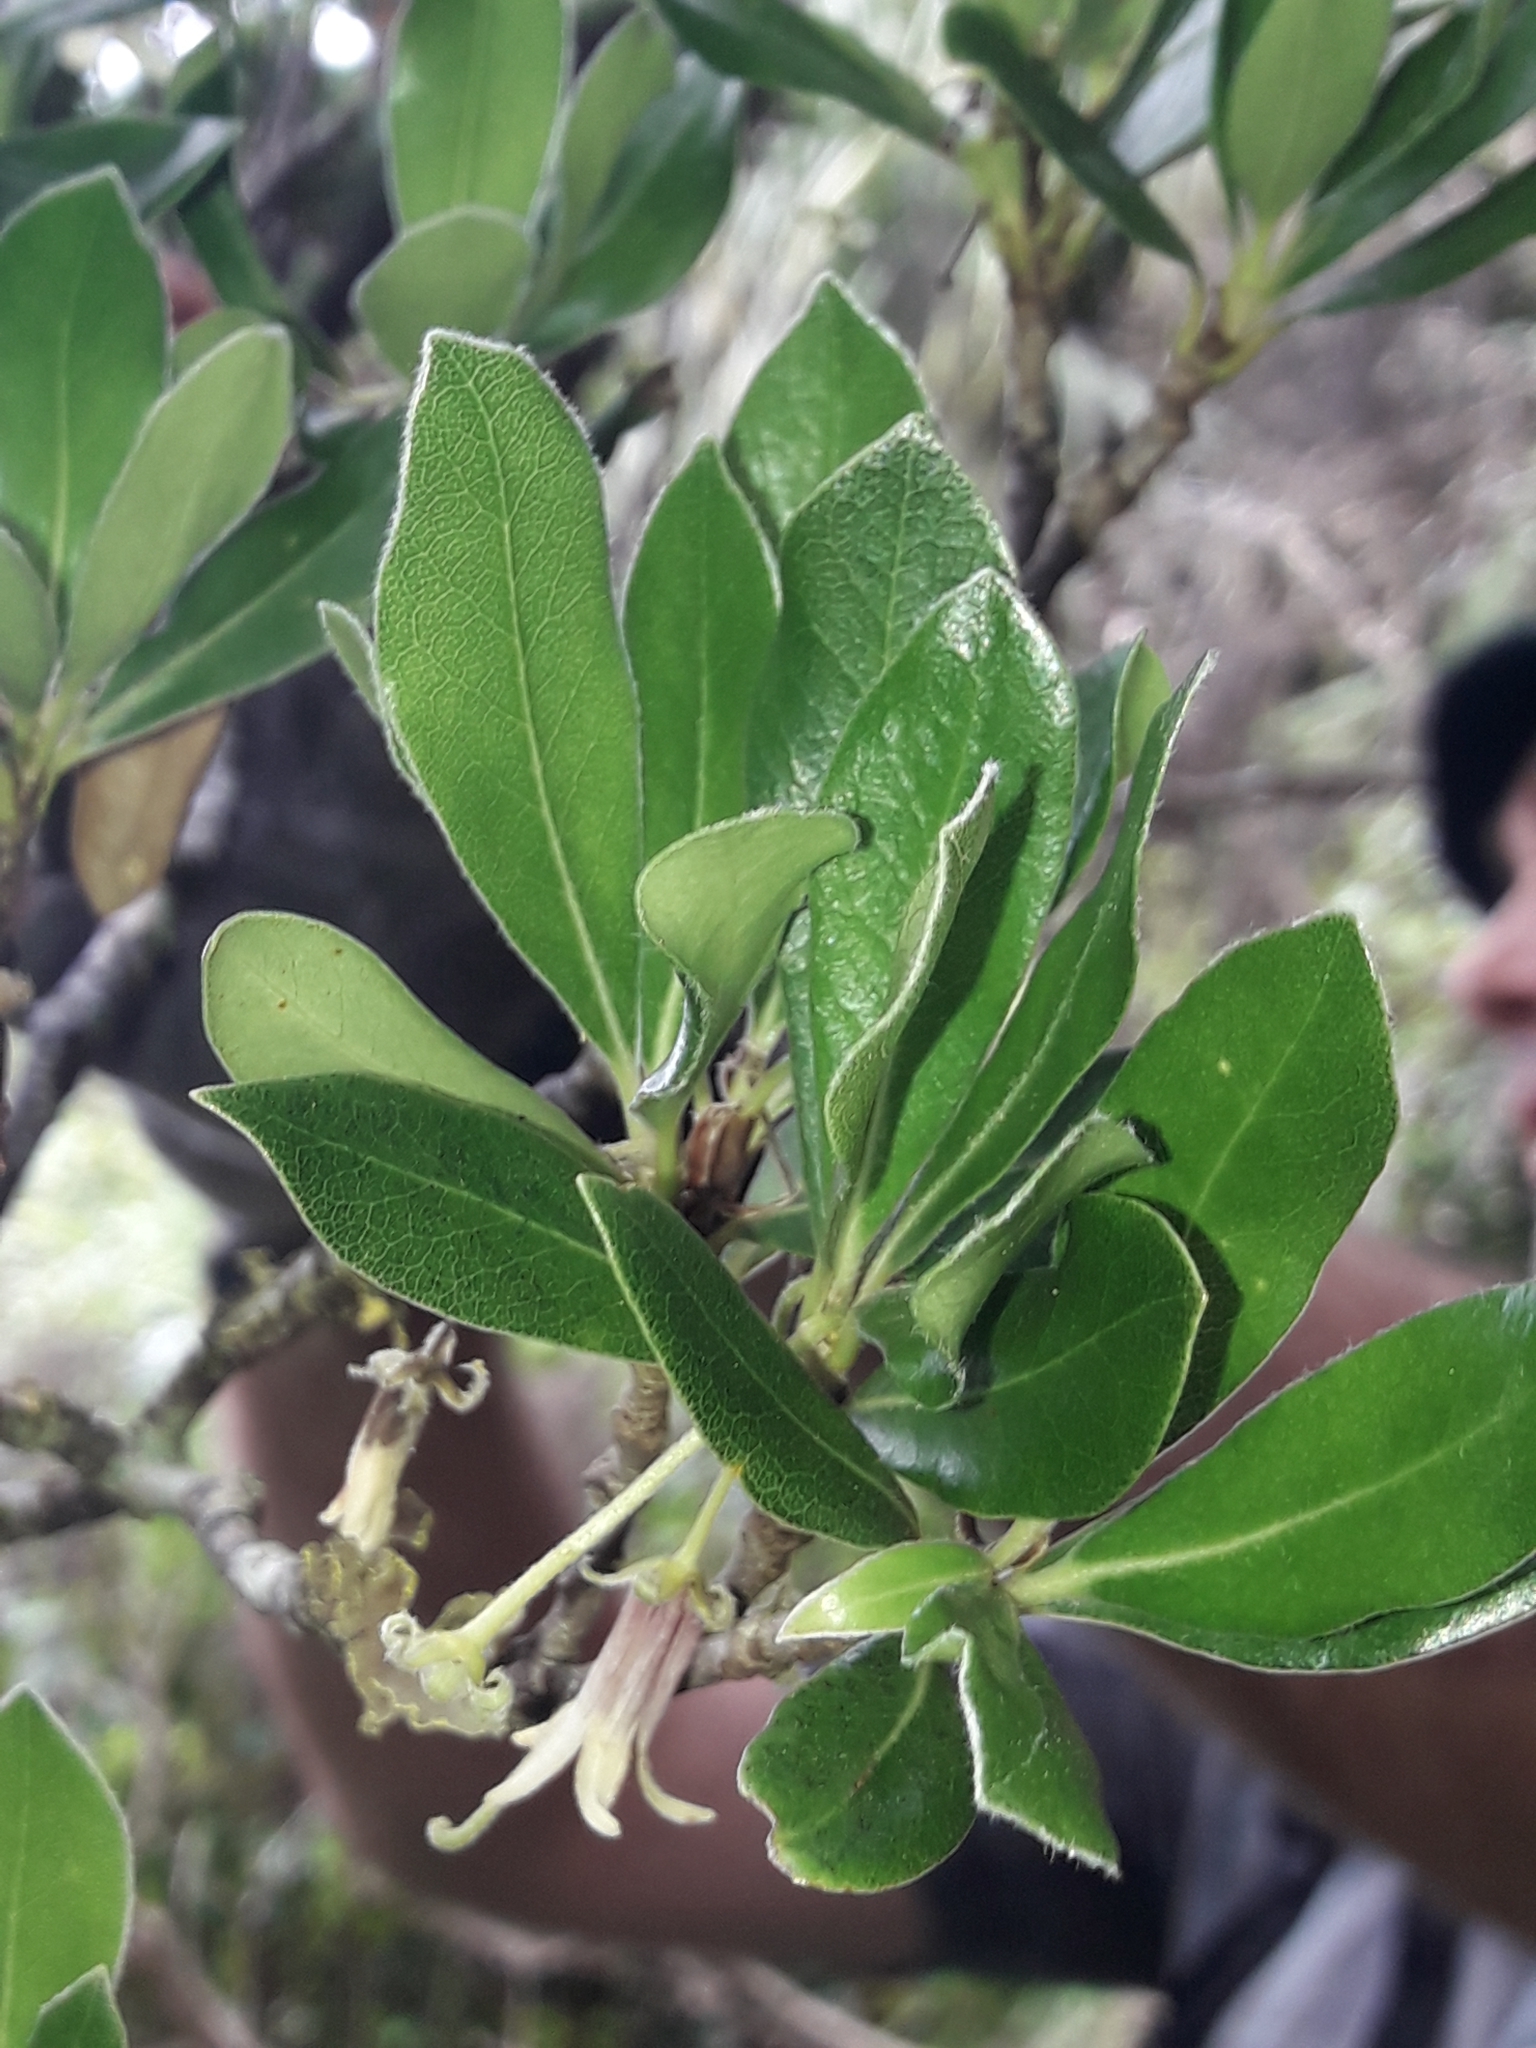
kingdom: Plantae
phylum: Tracheophyta
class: Magnoliopsida
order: Apiales
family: Pittosporaceae
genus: Pittosporum
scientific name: Pittosporum erioloma
